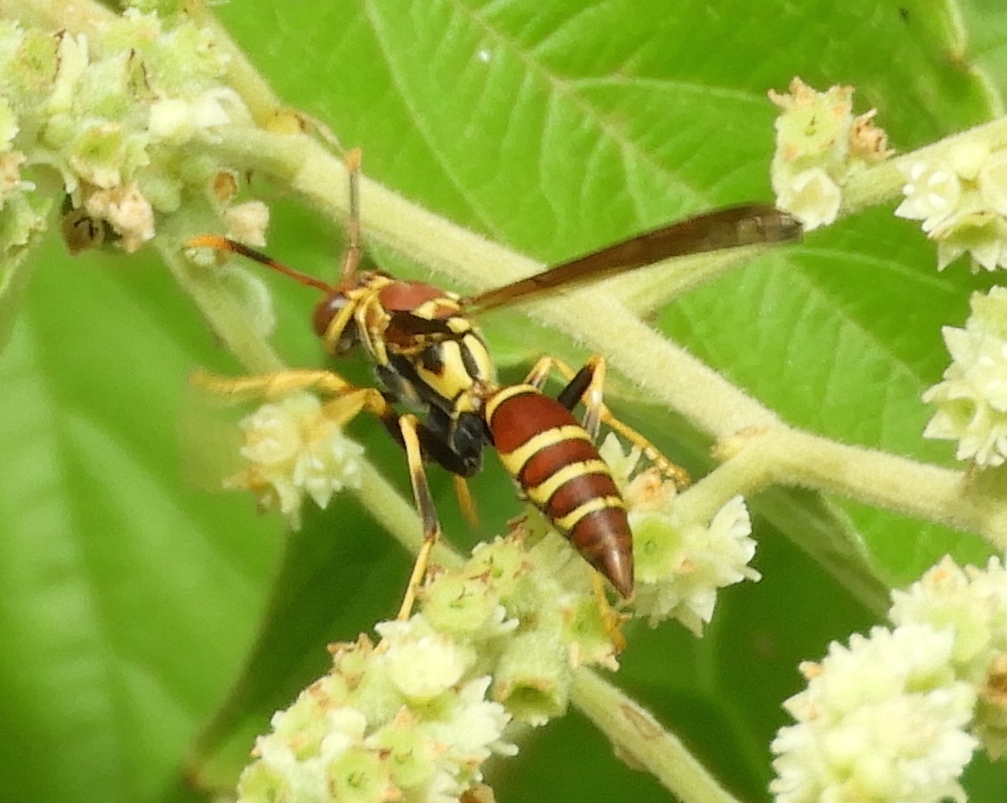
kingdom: Animalia
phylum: Arthropoda
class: Insecta
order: Hymenoptera
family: Eumenidae
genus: Polistes
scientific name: Polistes instabilis
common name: Unstable paper wasp
